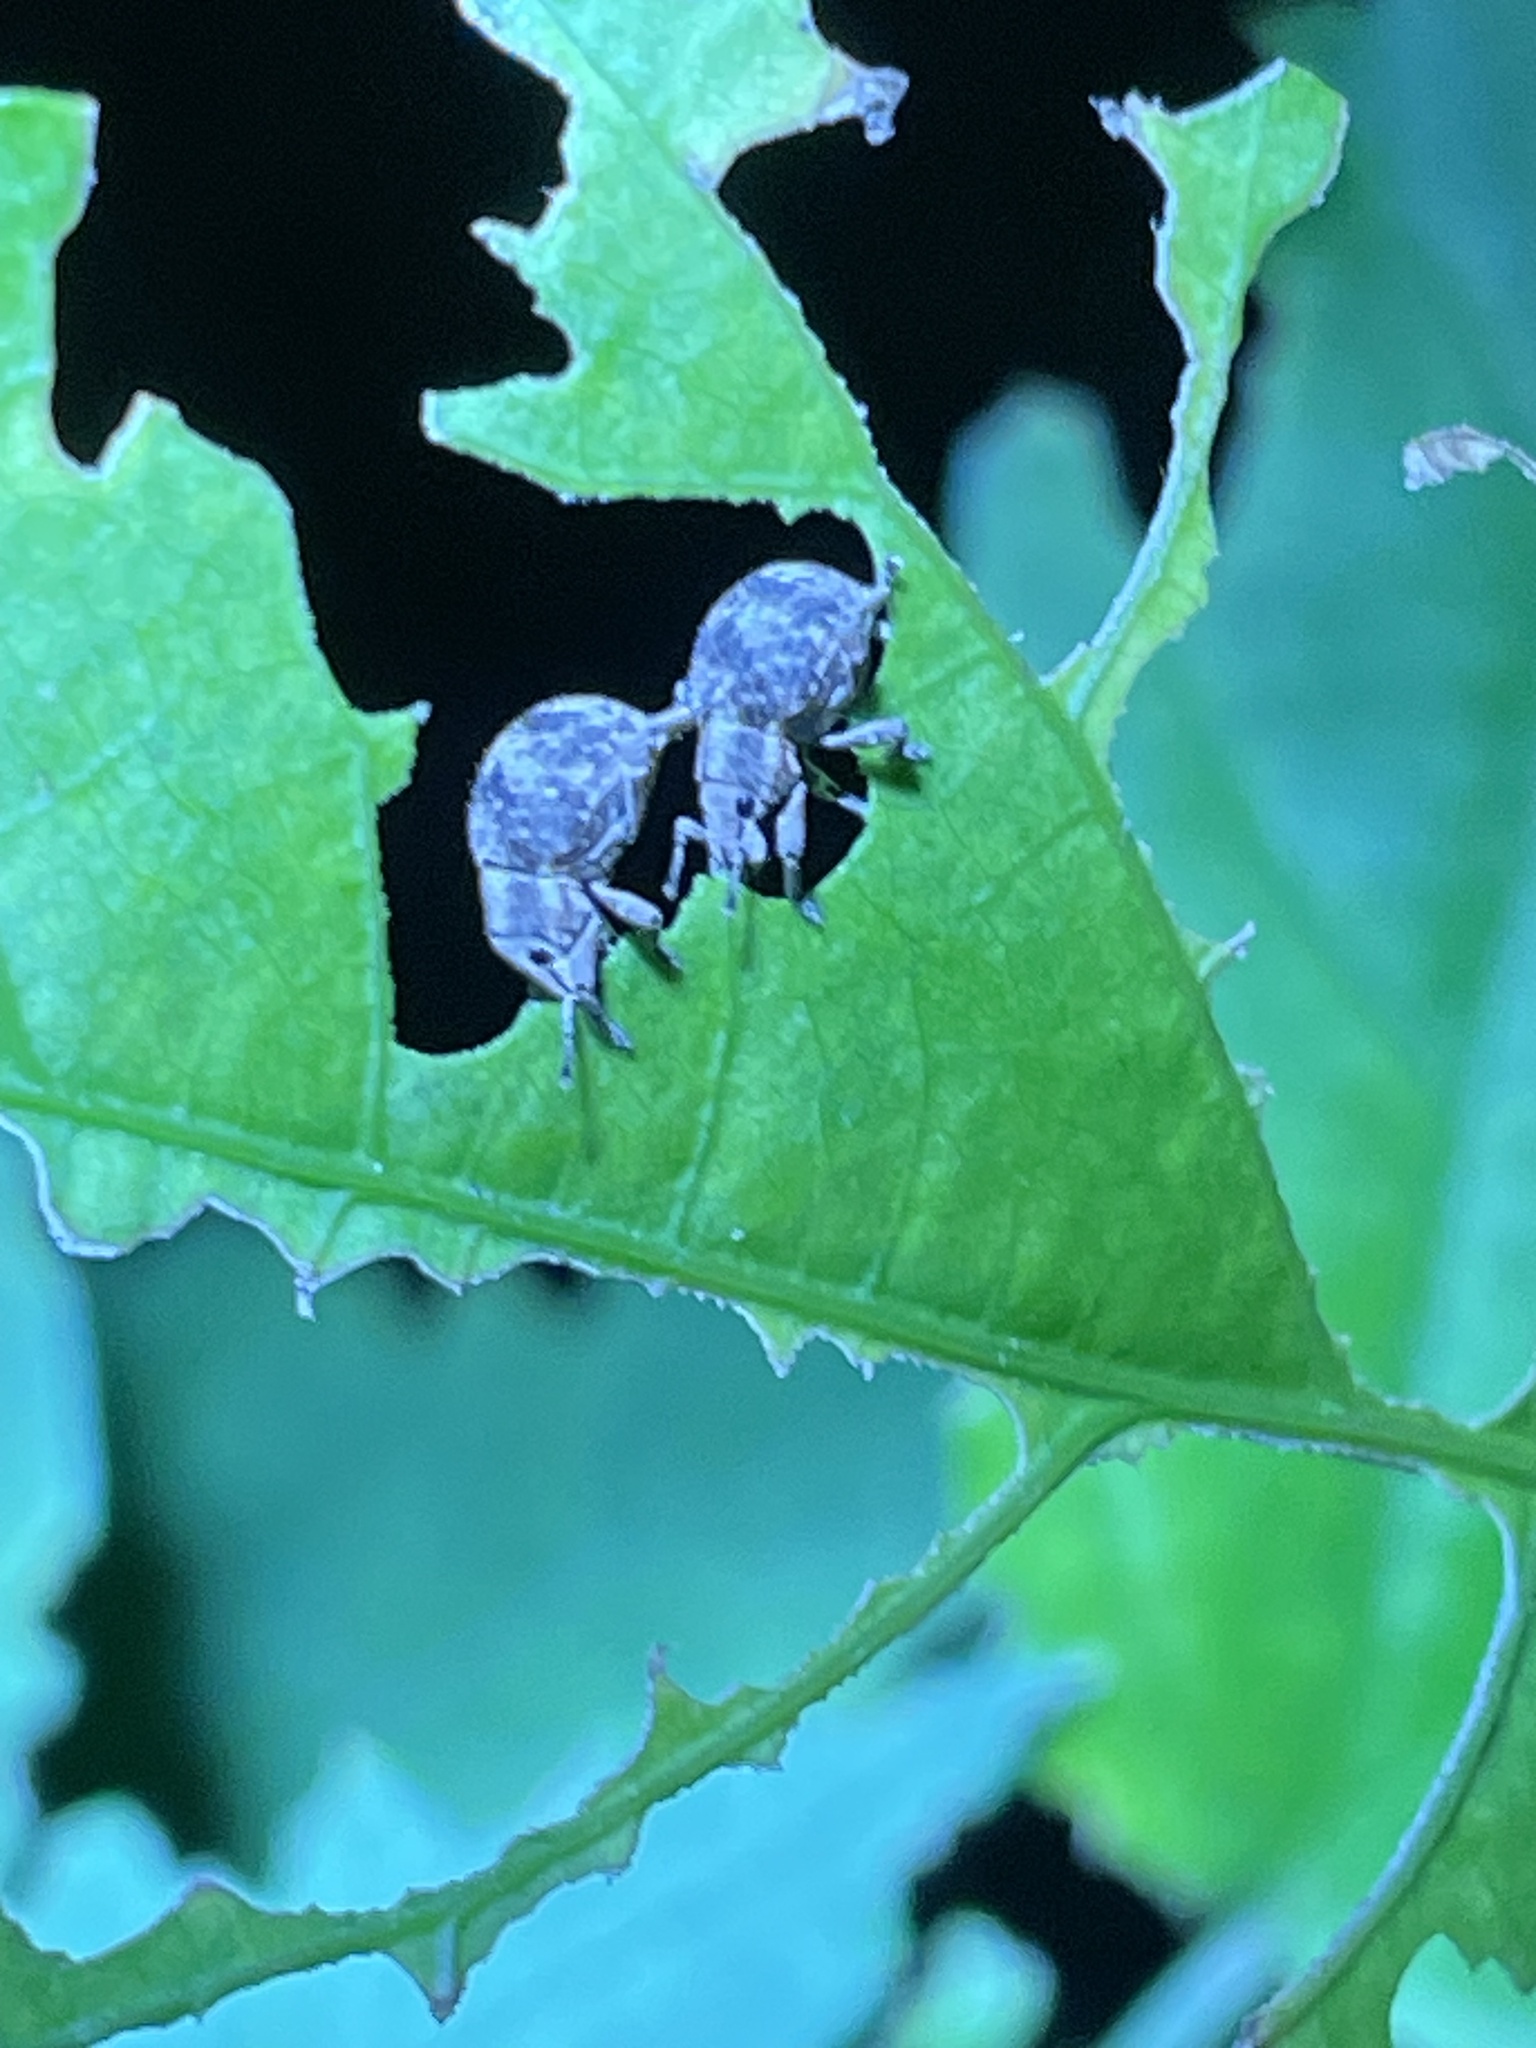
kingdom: Animalia
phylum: Arthropoda
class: Insecta
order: Coleoptera
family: Curculionidae
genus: Pseudocneorhinus
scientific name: Pseudocneorhinus bifasciatus
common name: Two-banded japanese weevil
